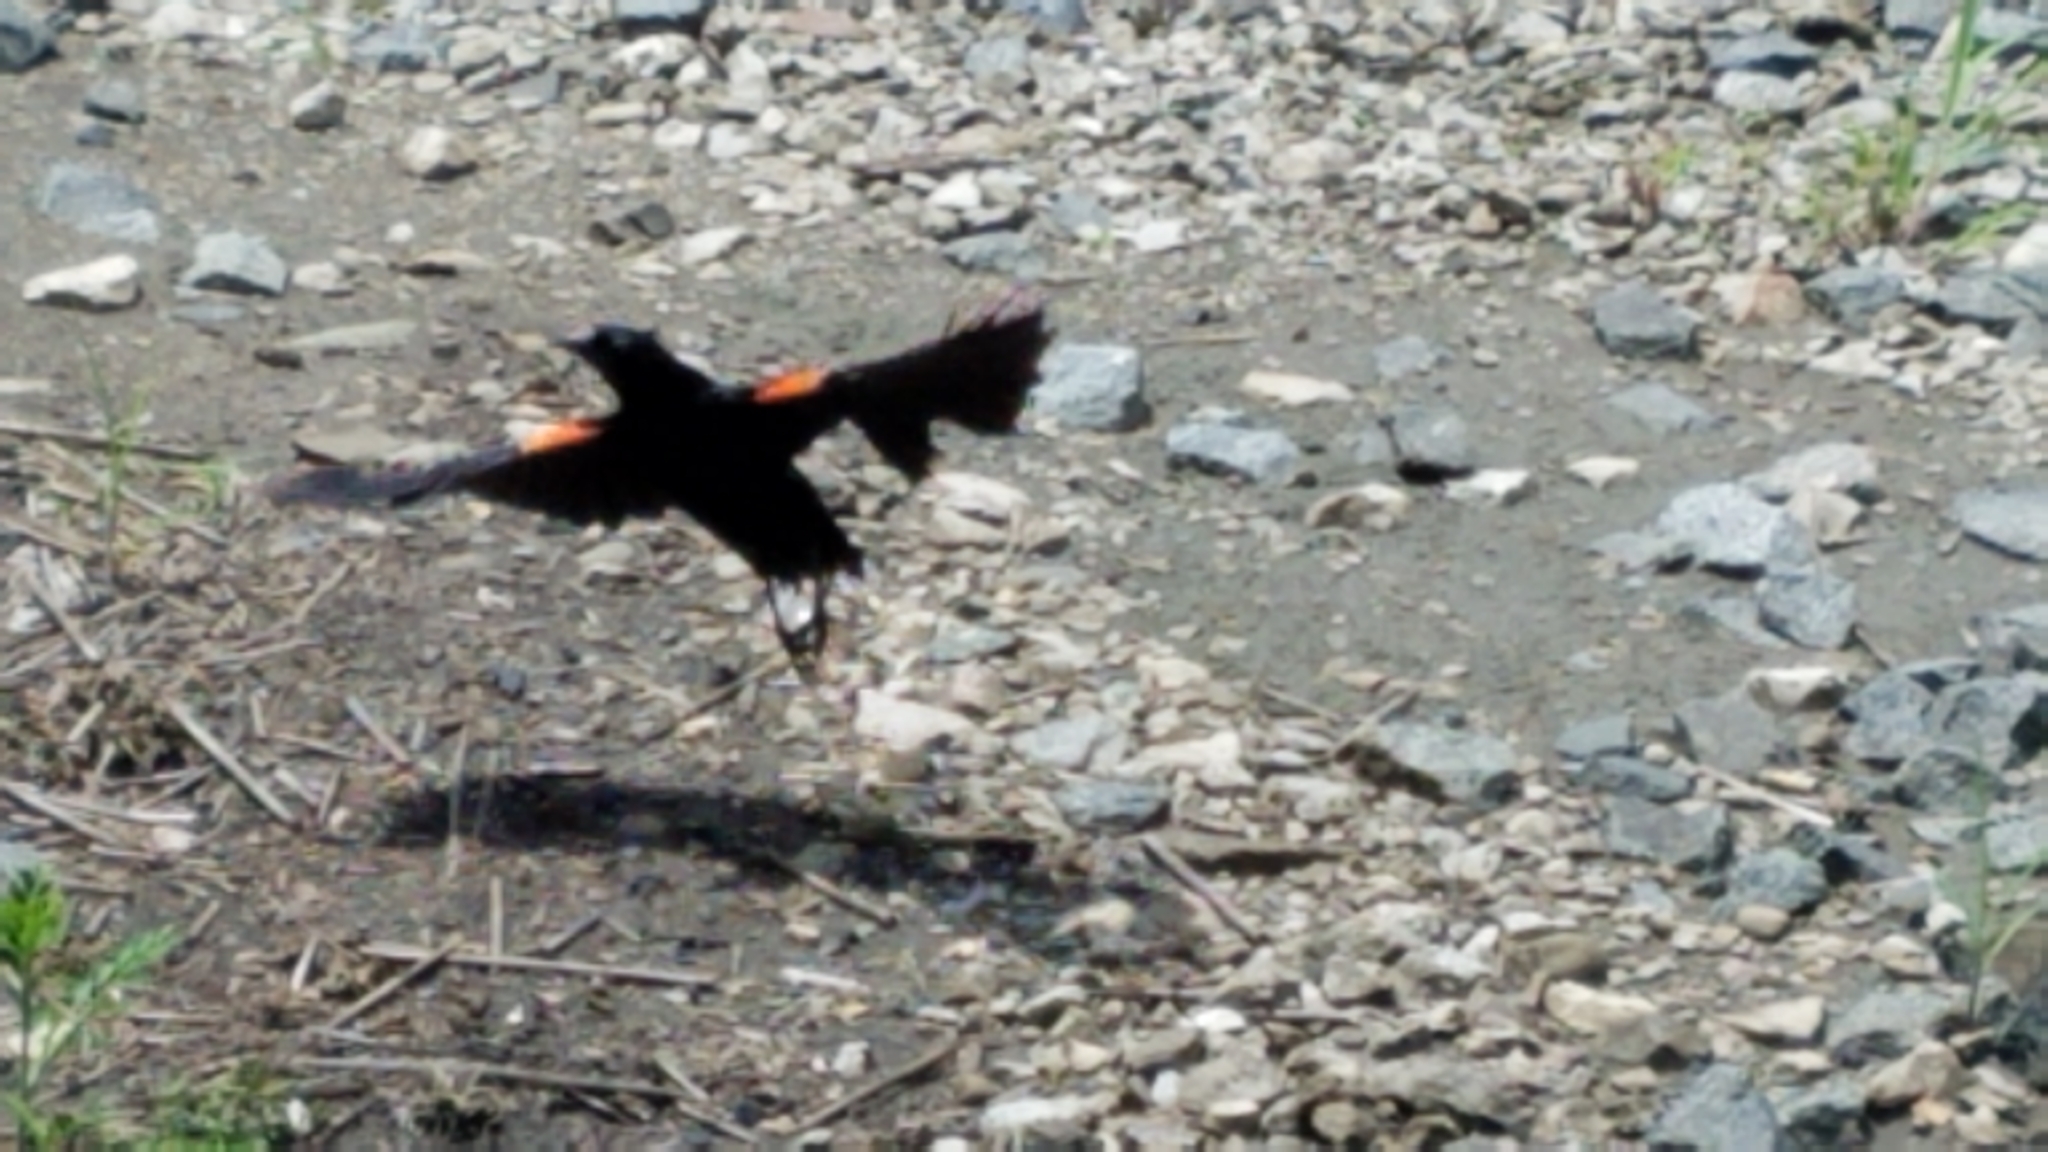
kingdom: Animalia
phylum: Chordata
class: Aves
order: Passeriformes
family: Icteridae
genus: Agelaius
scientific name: Agelaius phoeniceus
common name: Red-winged blackbird
